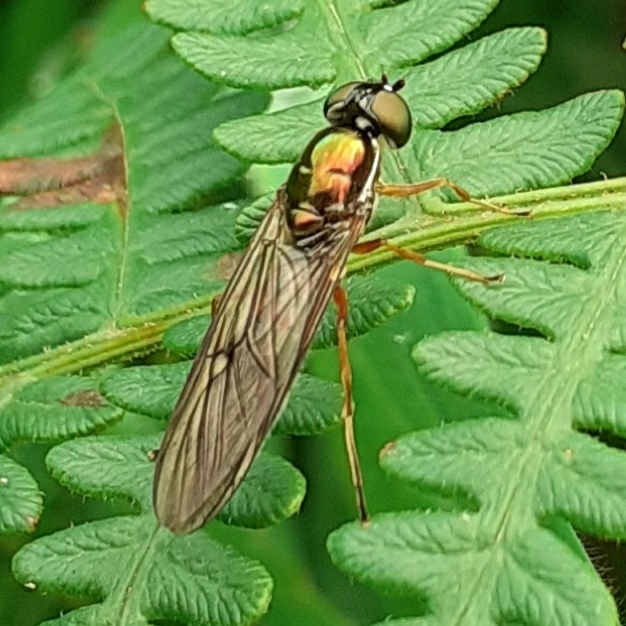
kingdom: Animalia
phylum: Arthropoda
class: Insecta
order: Diptera
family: Stratiomyidae
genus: Sargus
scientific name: Sargus bipunctatus
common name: Twin-spot centurion
